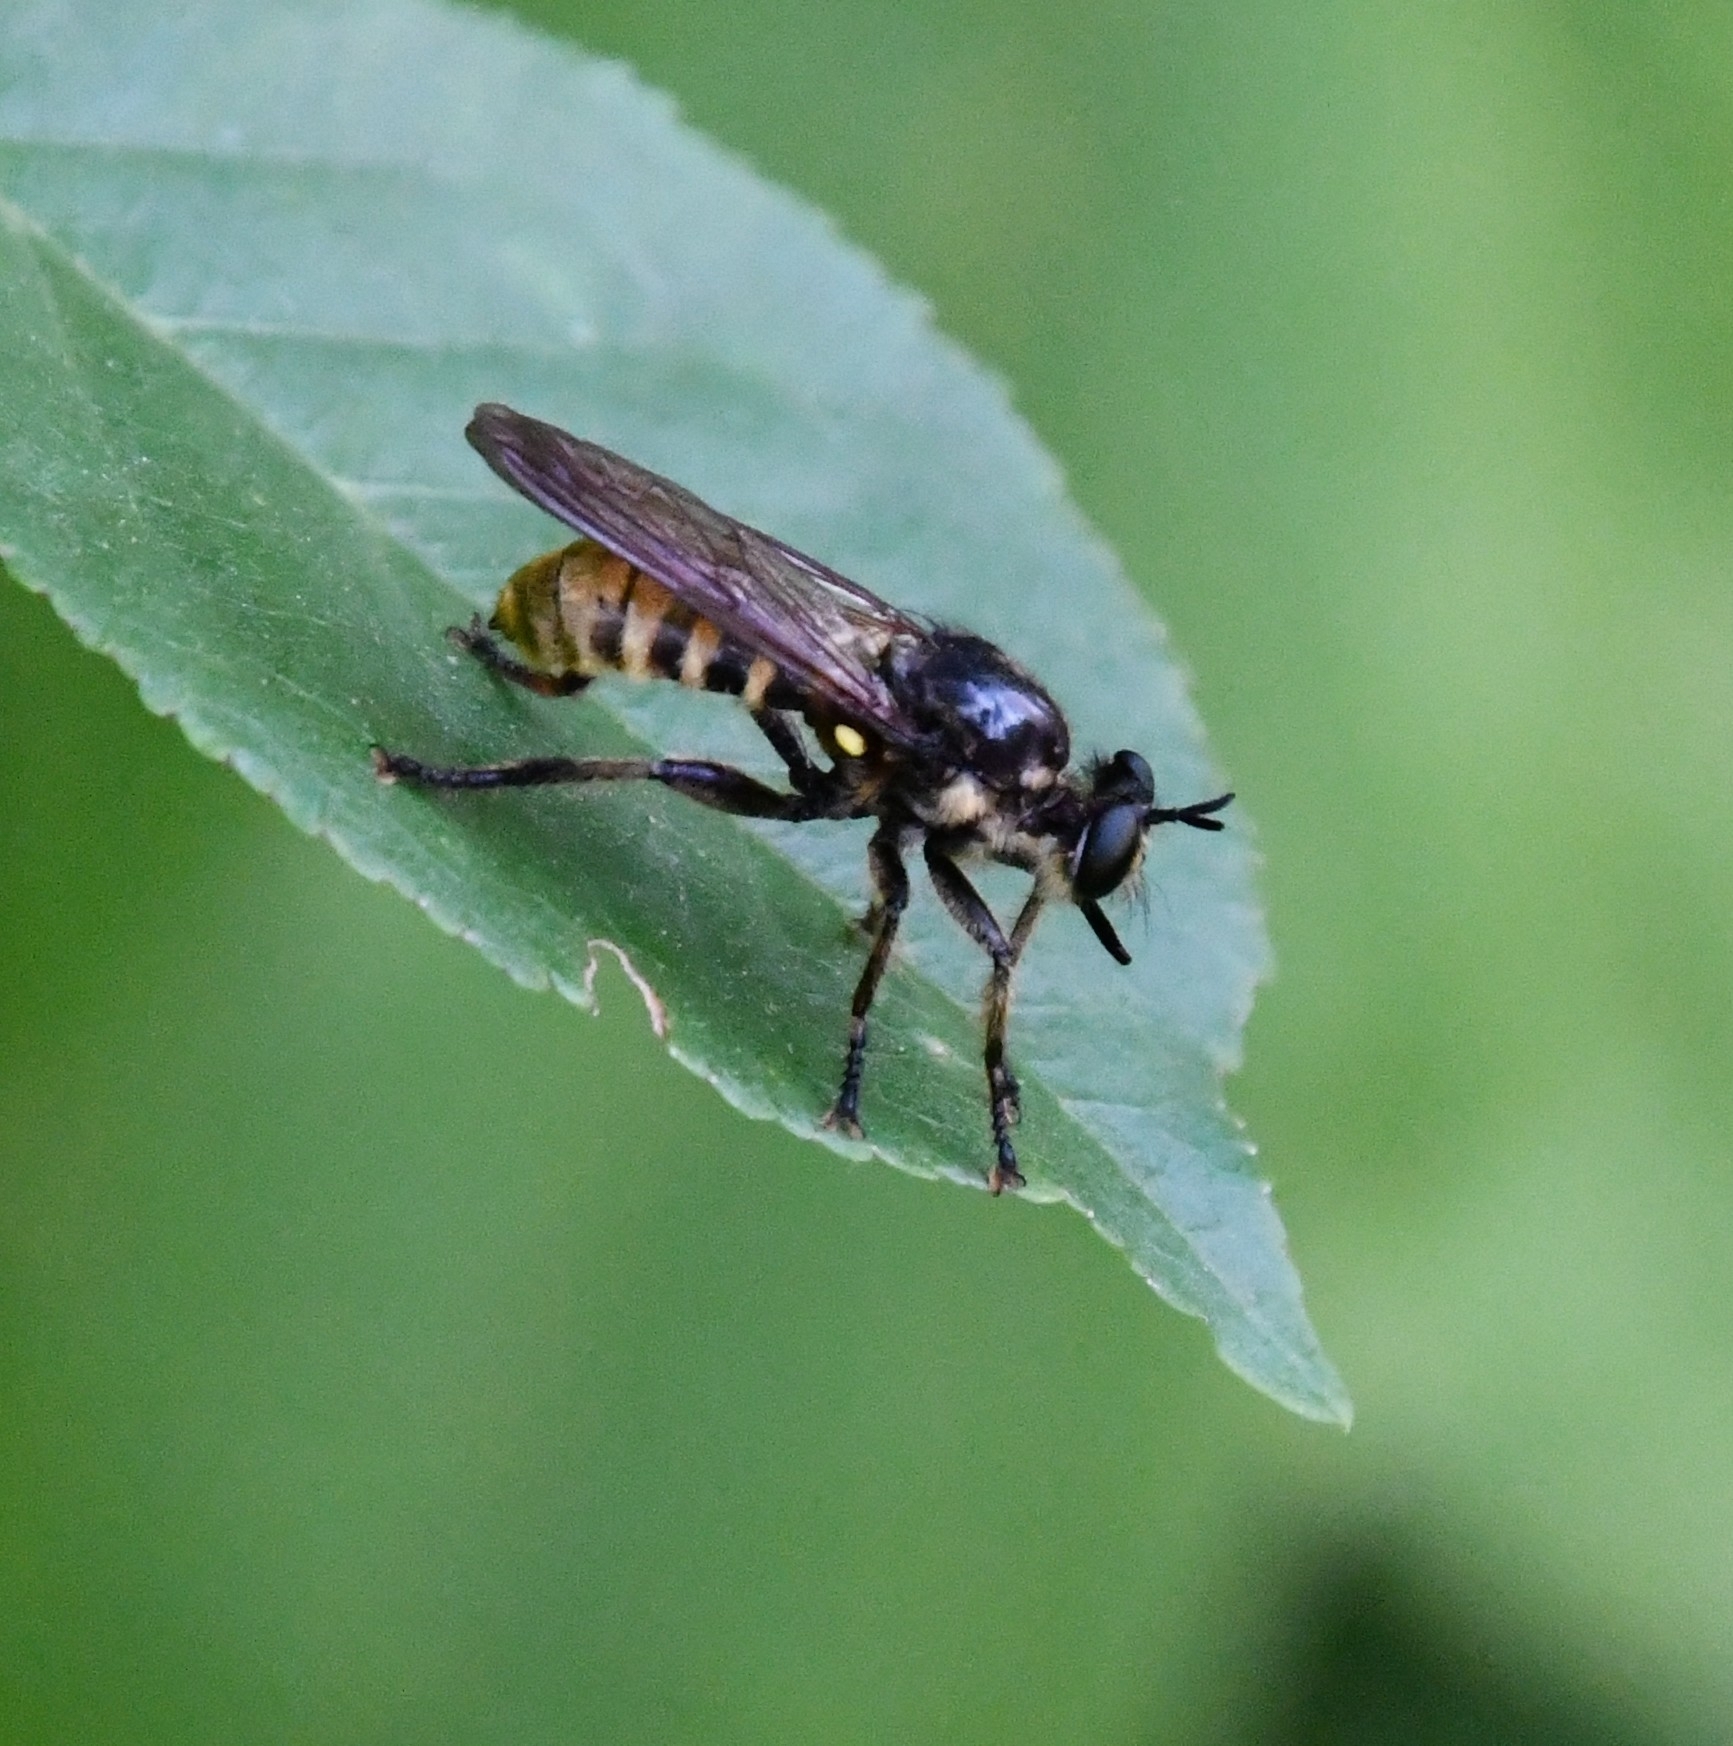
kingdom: Animalia
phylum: Arthropoda
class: Insecta
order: Diptera
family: Asilidae
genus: Lamyra
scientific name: Lamyra fimbriata
